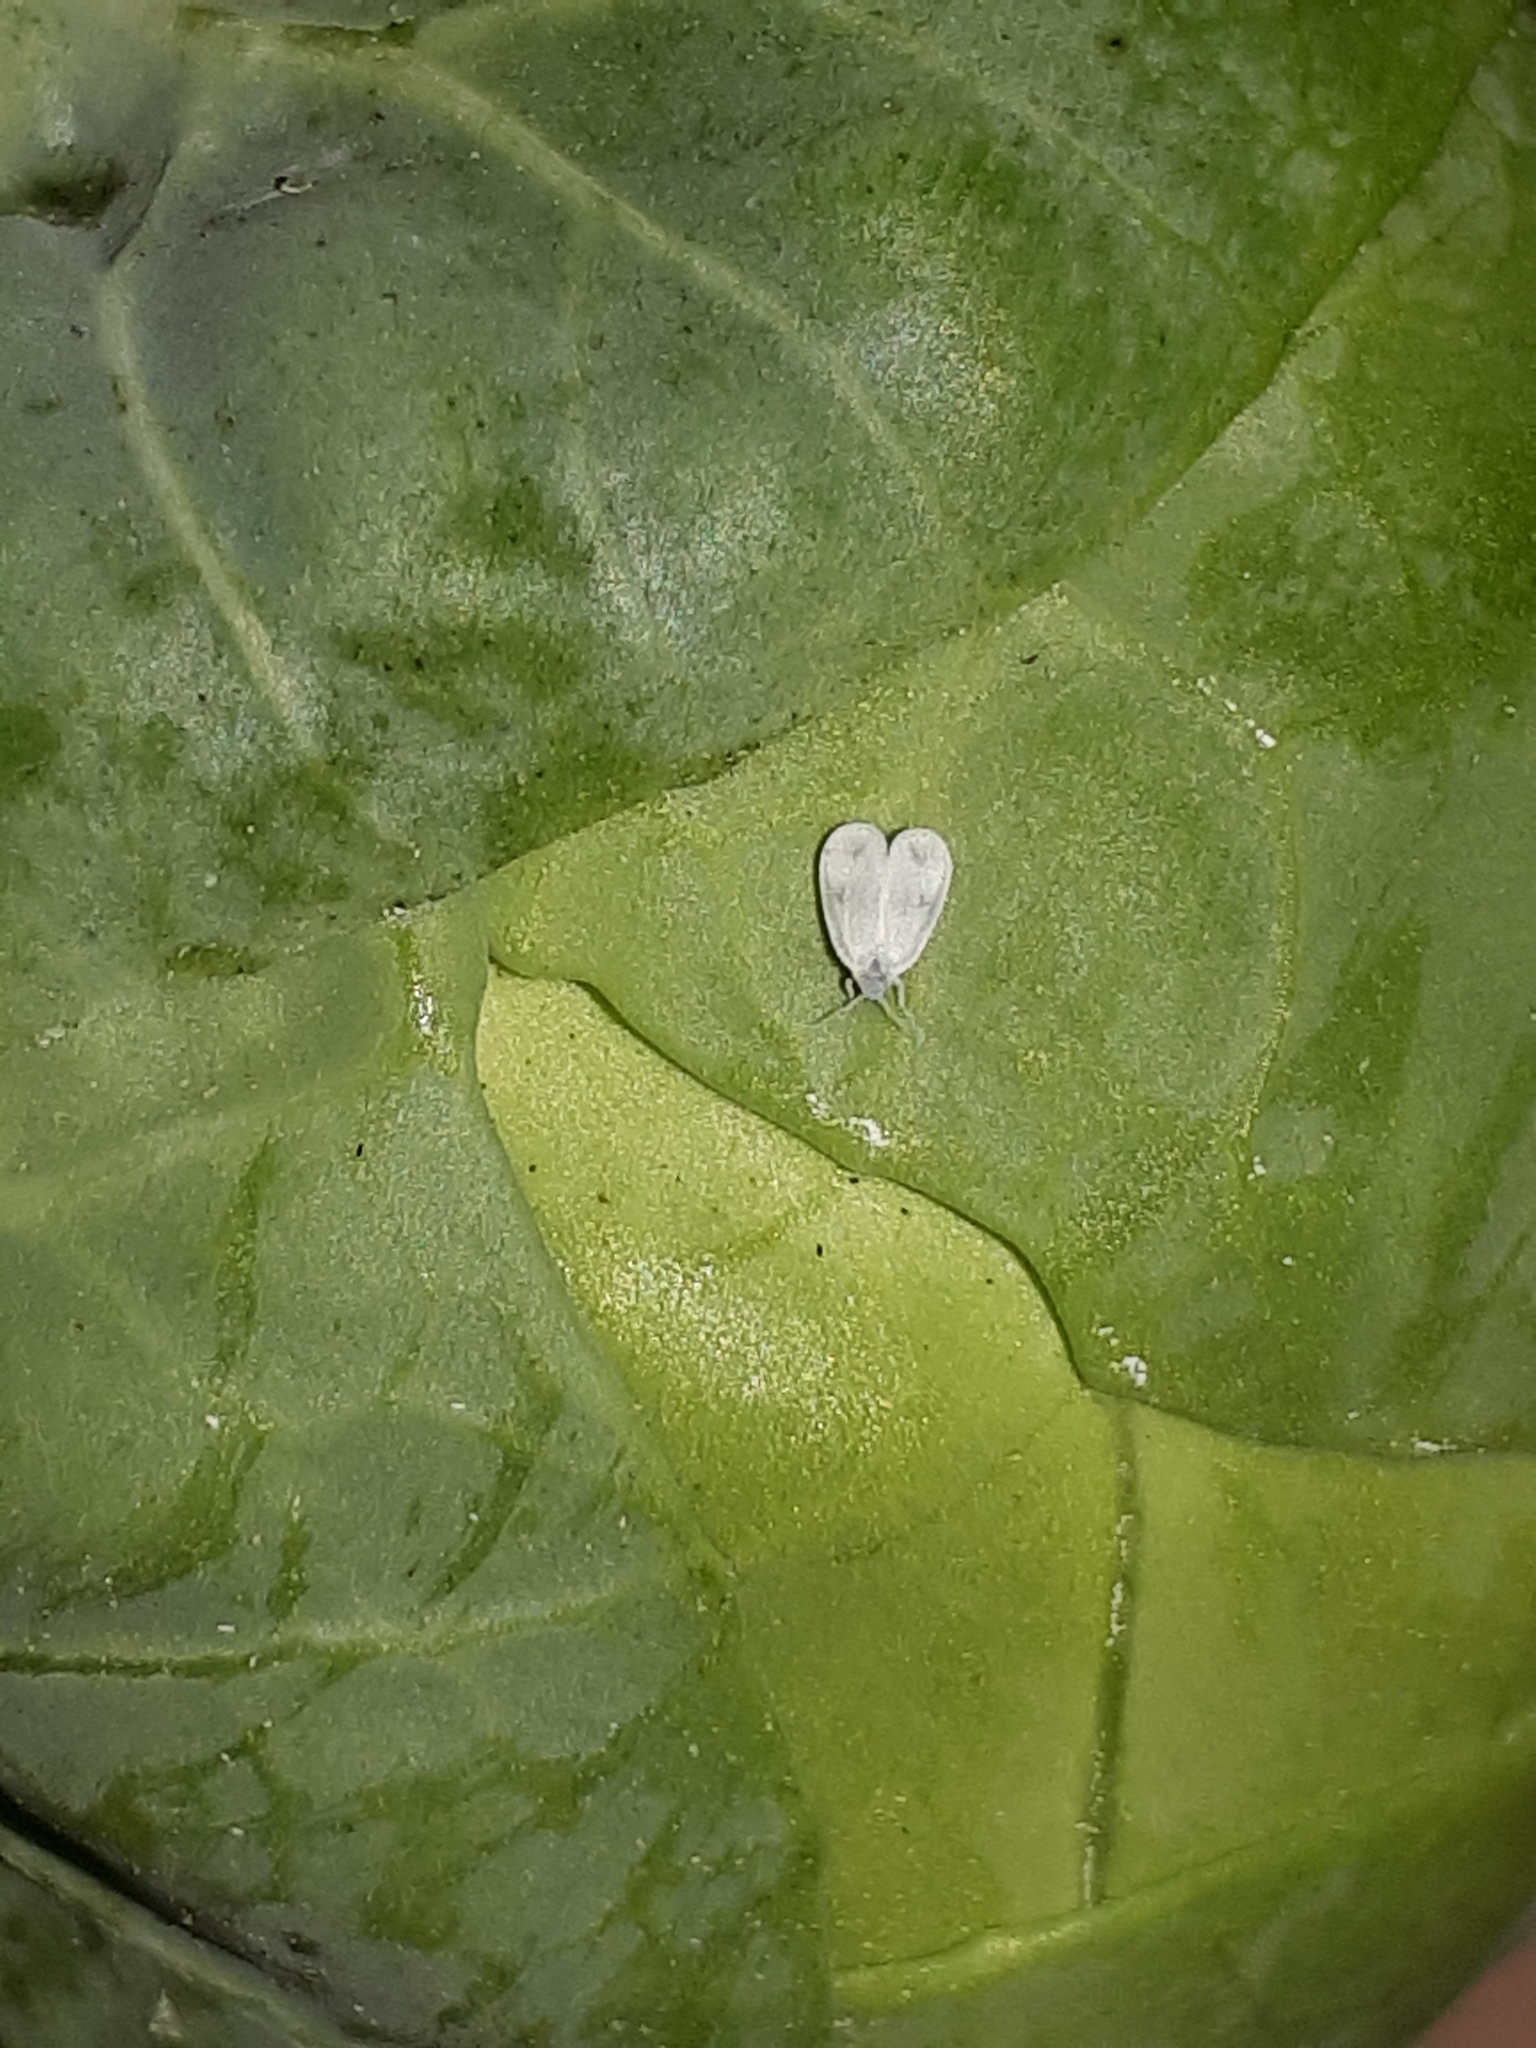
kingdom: Animalia
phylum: Arthropoda
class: Insecta
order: Hemiptera
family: Aleyrodidae
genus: Aleyrodes
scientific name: Aleyrodes proletella
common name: Cabbage whitefly
